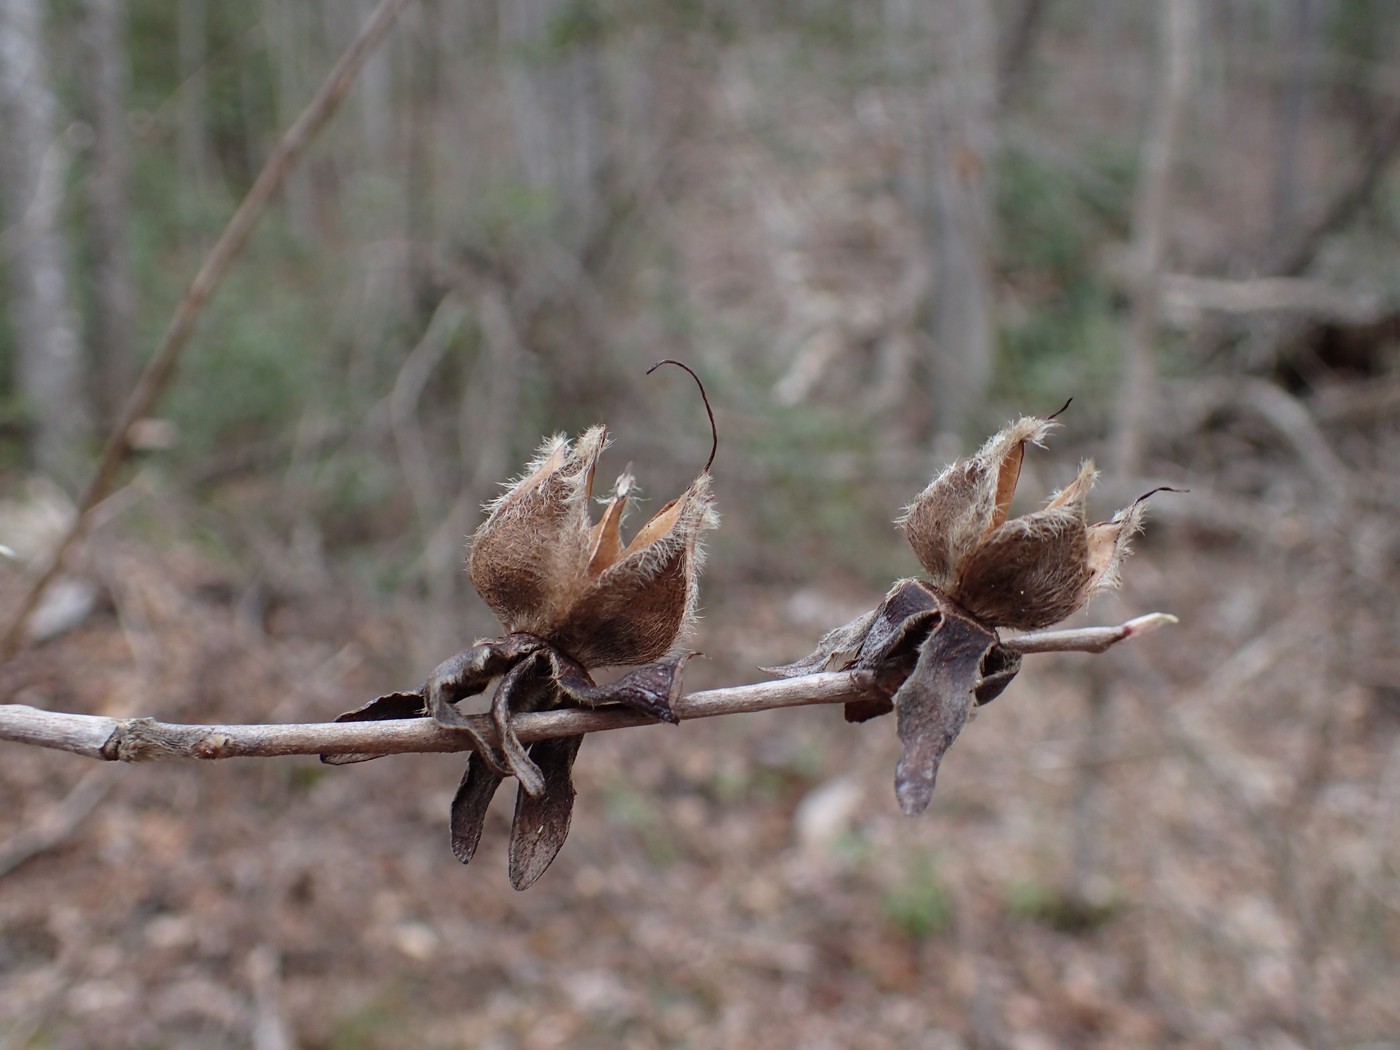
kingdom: Plantae
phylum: Tracheophyta
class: Magnoliopsida
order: Ericales
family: Theaceae
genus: Stewartia
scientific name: Stewartia ovata
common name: Mountain camellia
